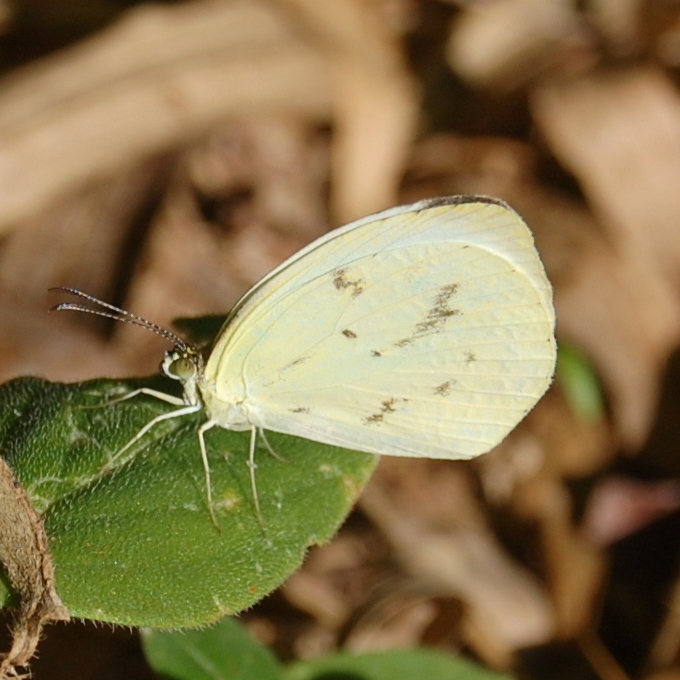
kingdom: Animalia
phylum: Arthropoda
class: Insecta
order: Lepidoptera
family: Pieridae
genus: Abaeis
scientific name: Abaeis albula
